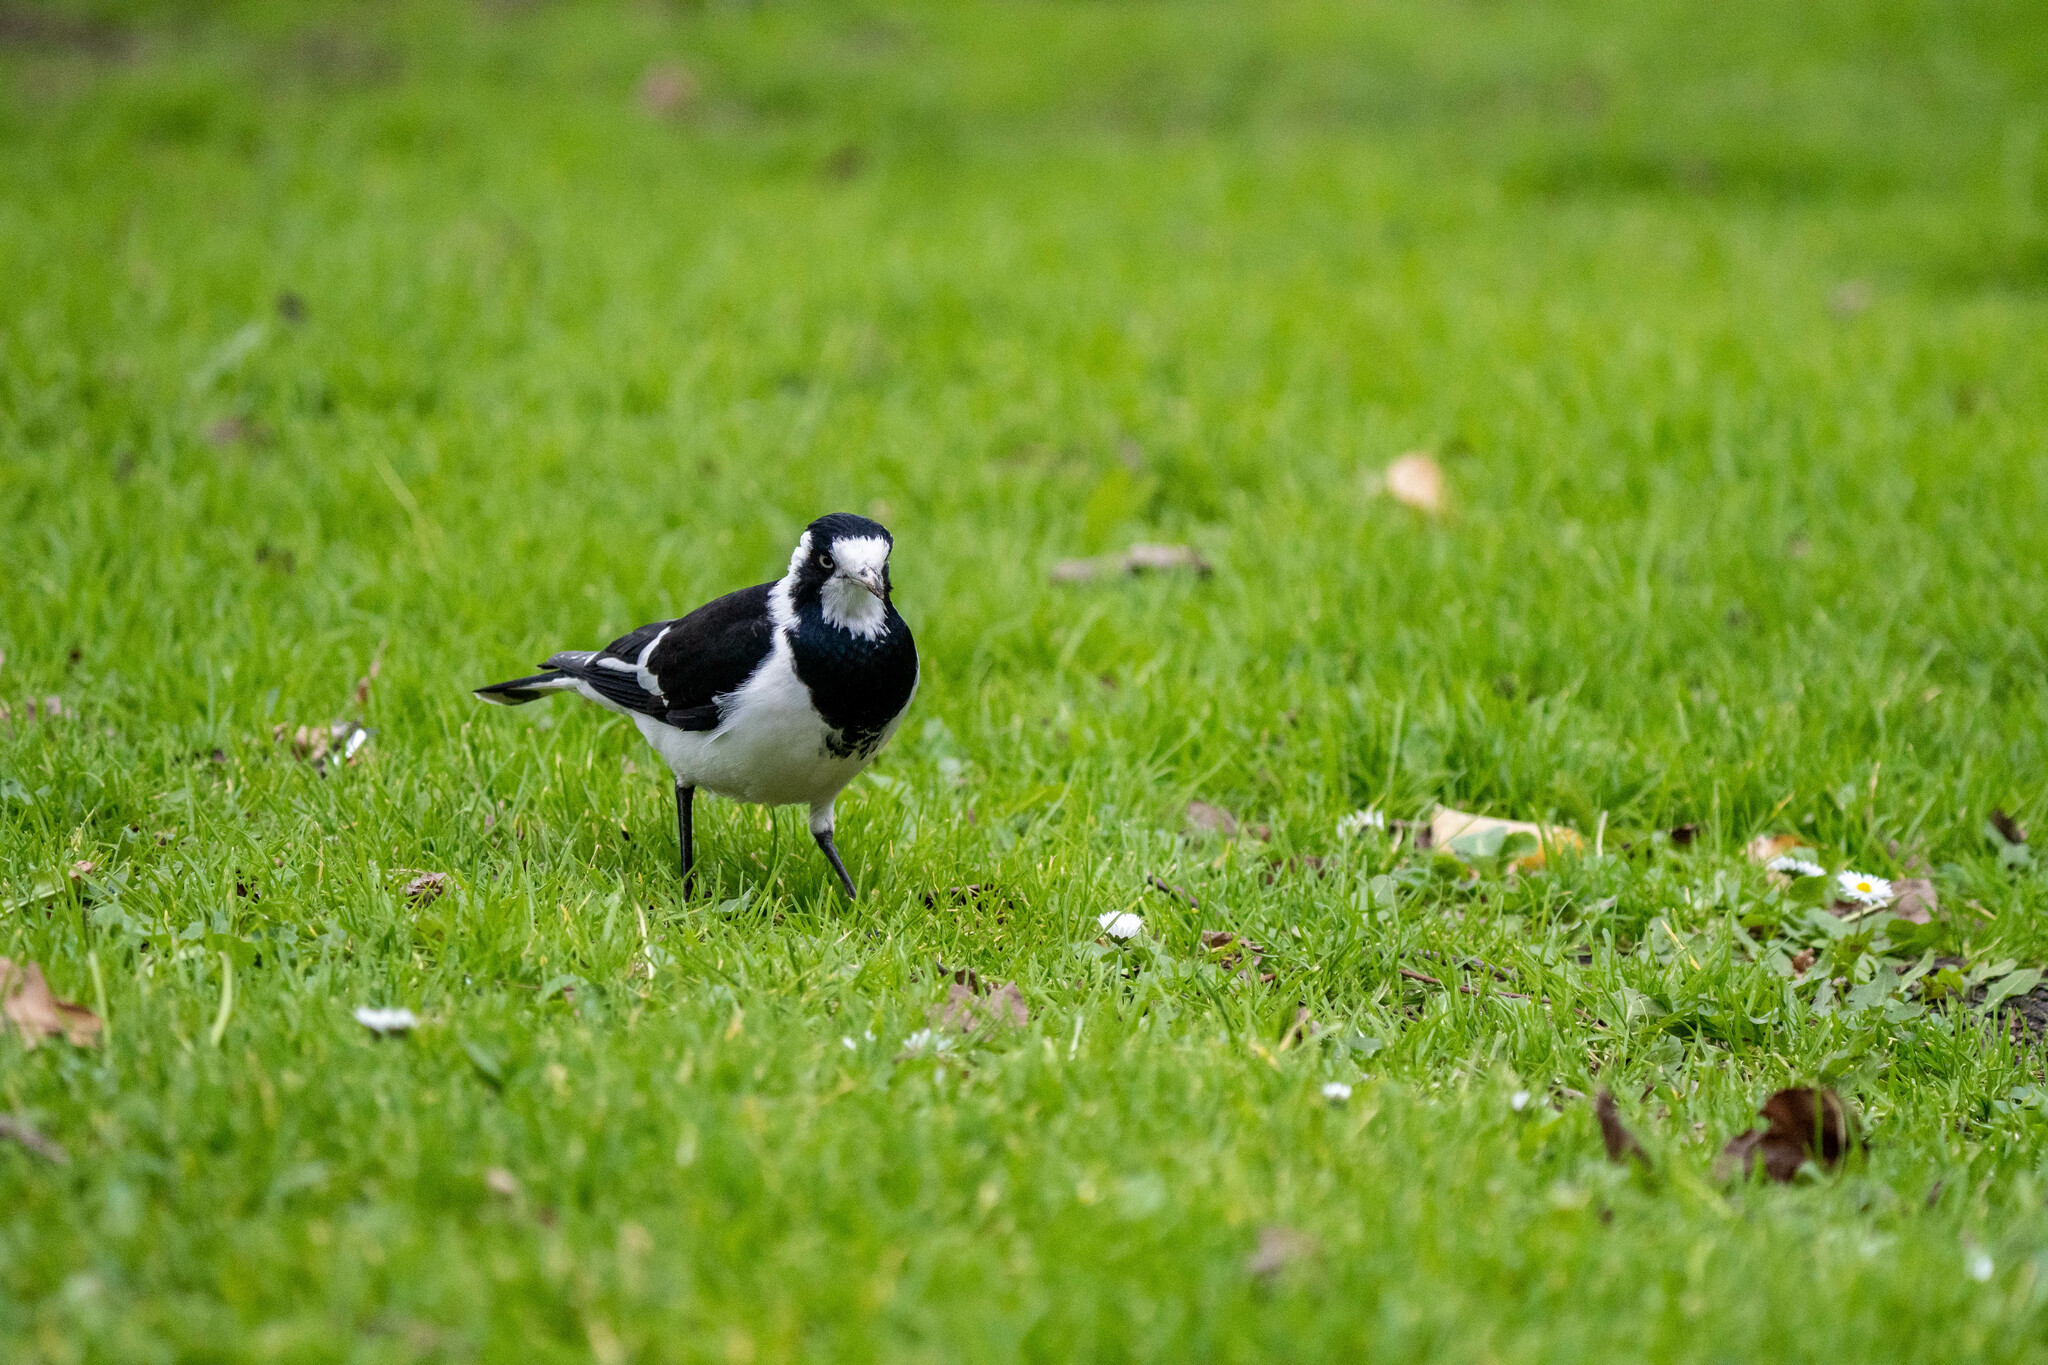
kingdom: Animalia
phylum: Chordata
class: Aves
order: Passeriformes
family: Monarchidae
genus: Grallina
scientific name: Grallina cyanoleuca
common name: Magpie-lark
